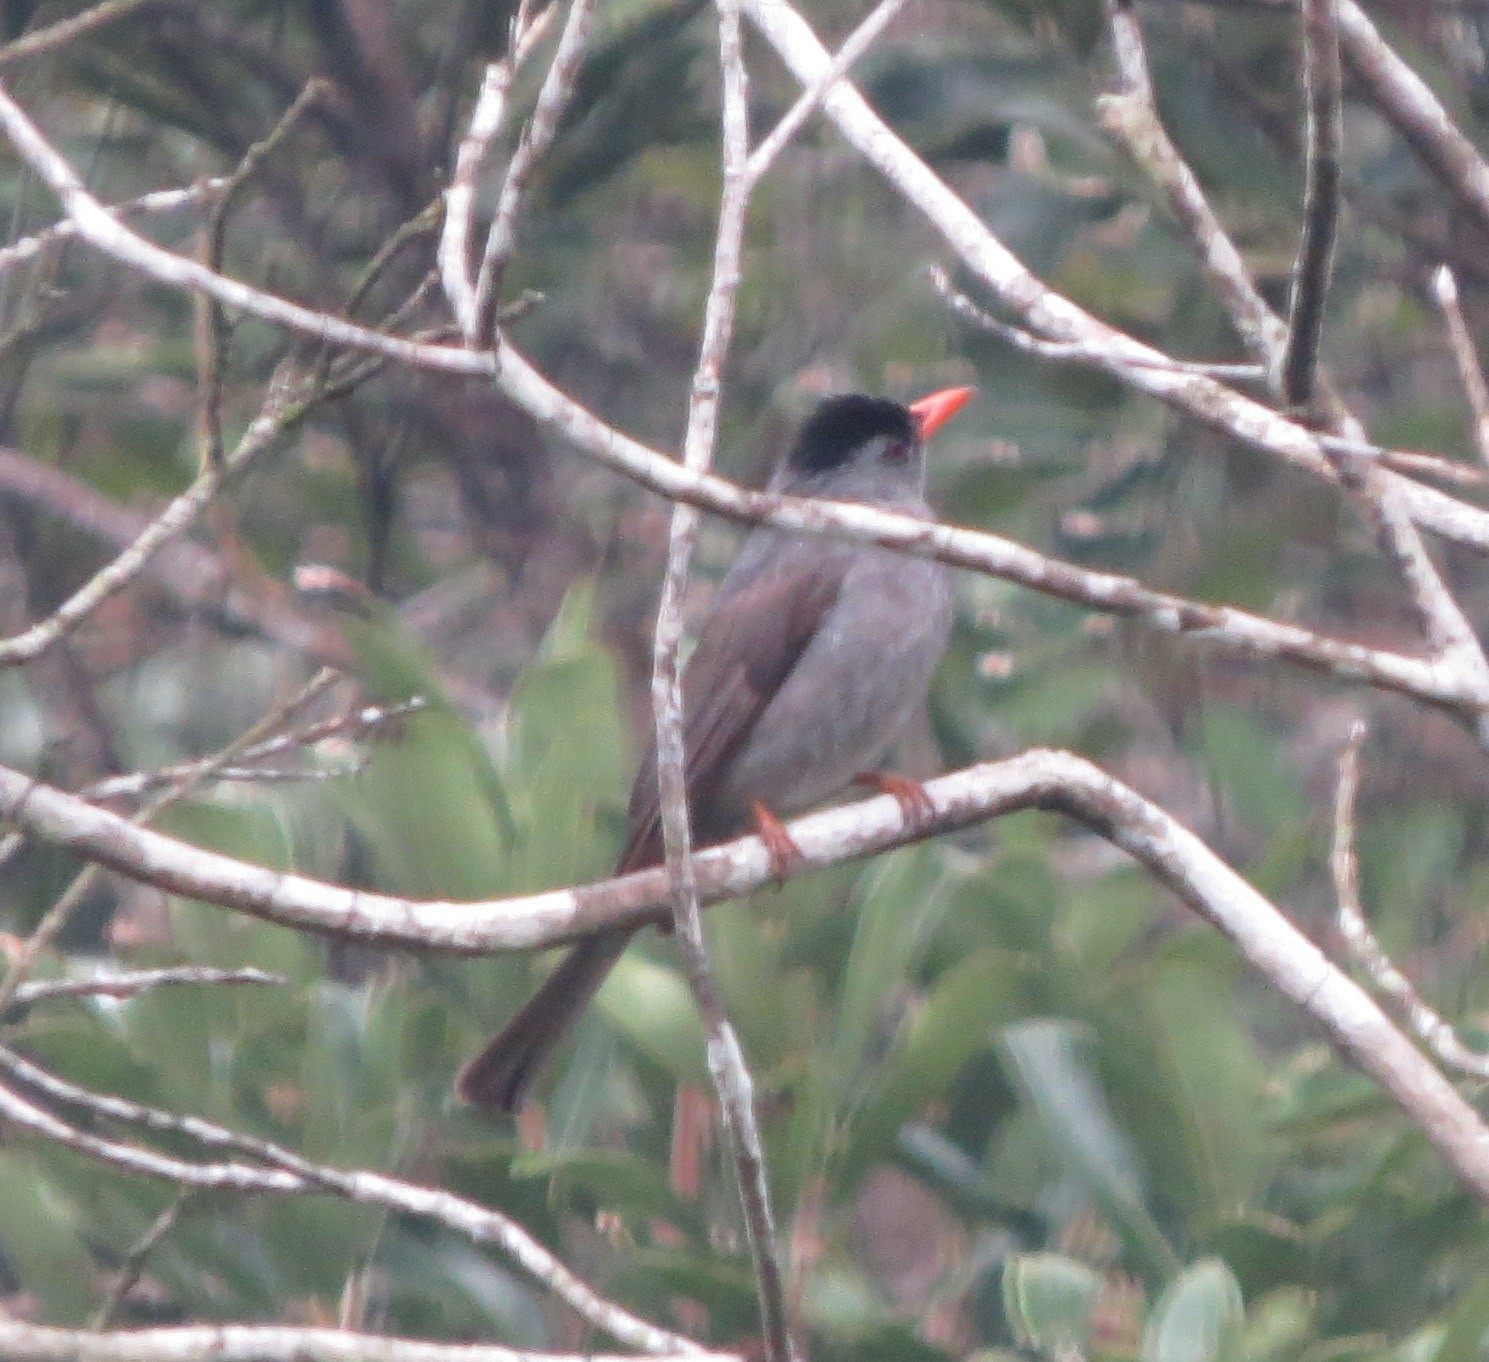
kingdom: Animalia
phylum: Chordata
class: Aves
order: Passeriformes
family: Pycnonotidae
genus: Hypsipetes
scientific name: Hypsipetes madagascariensis
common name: Malagasy bulbul
